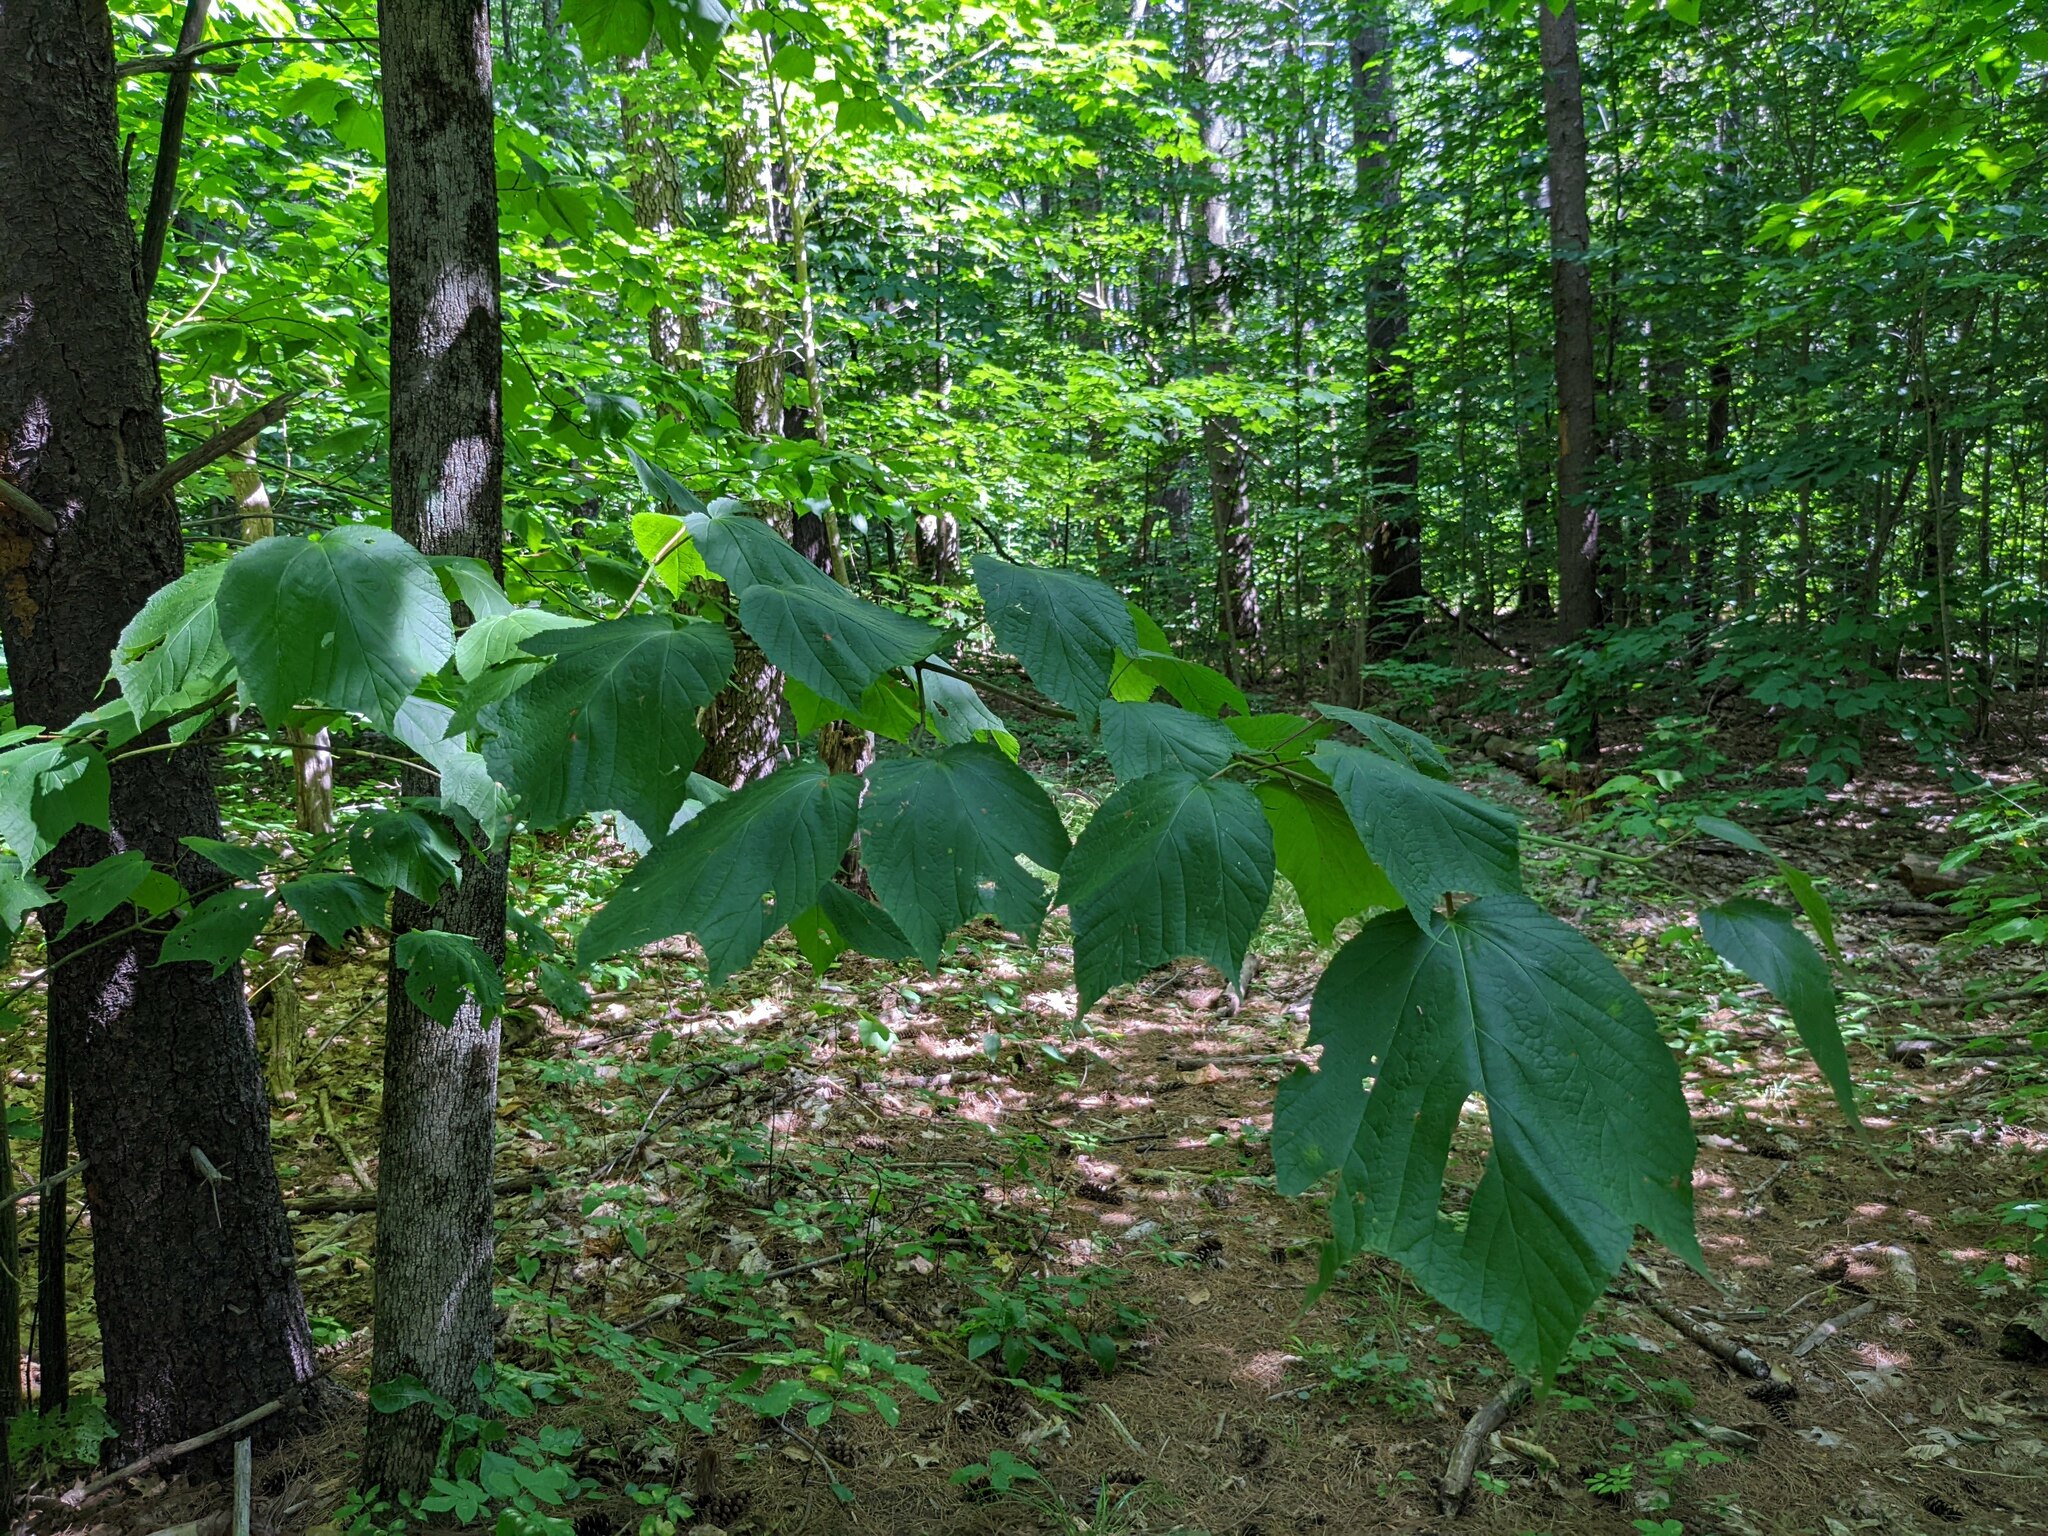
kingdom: Plantae
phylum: Tracheophyta
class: Magnoliopsida
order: Sapindales
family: Sapindaceae
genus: Acer
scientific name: Acer pensylvanicum
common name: Moosewood
